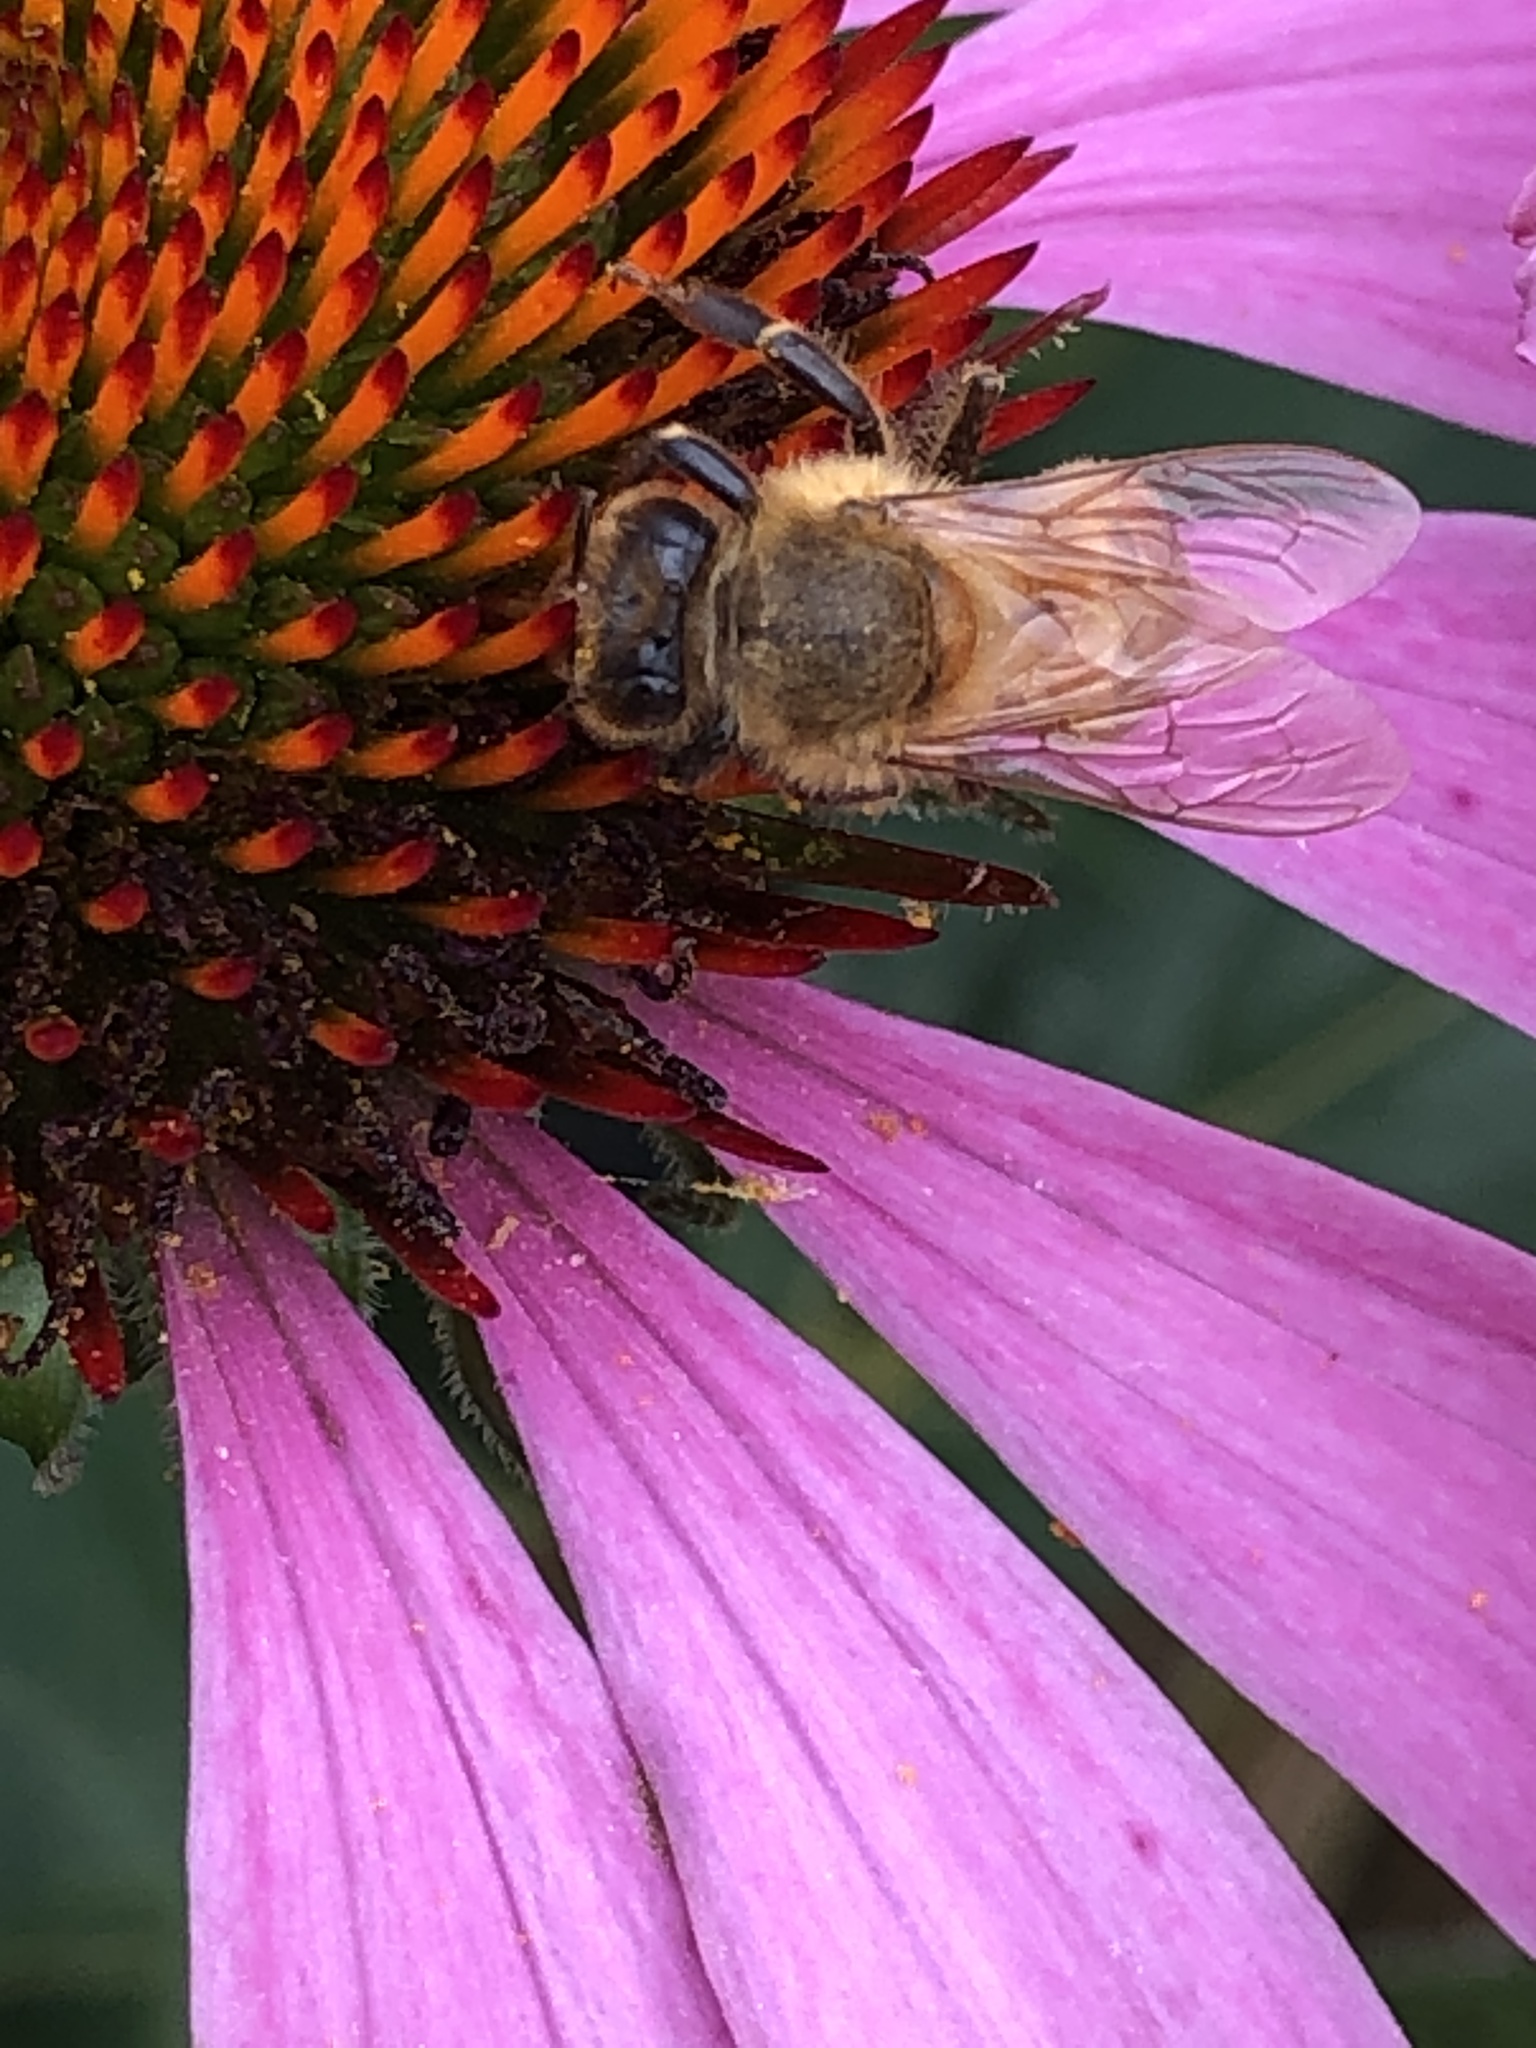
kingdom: Animalia
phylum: Arthropoda
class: Insecta
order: Hymenoptera
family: Apidae
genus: Apis
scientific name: Apis mellifera
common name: Honey bee
